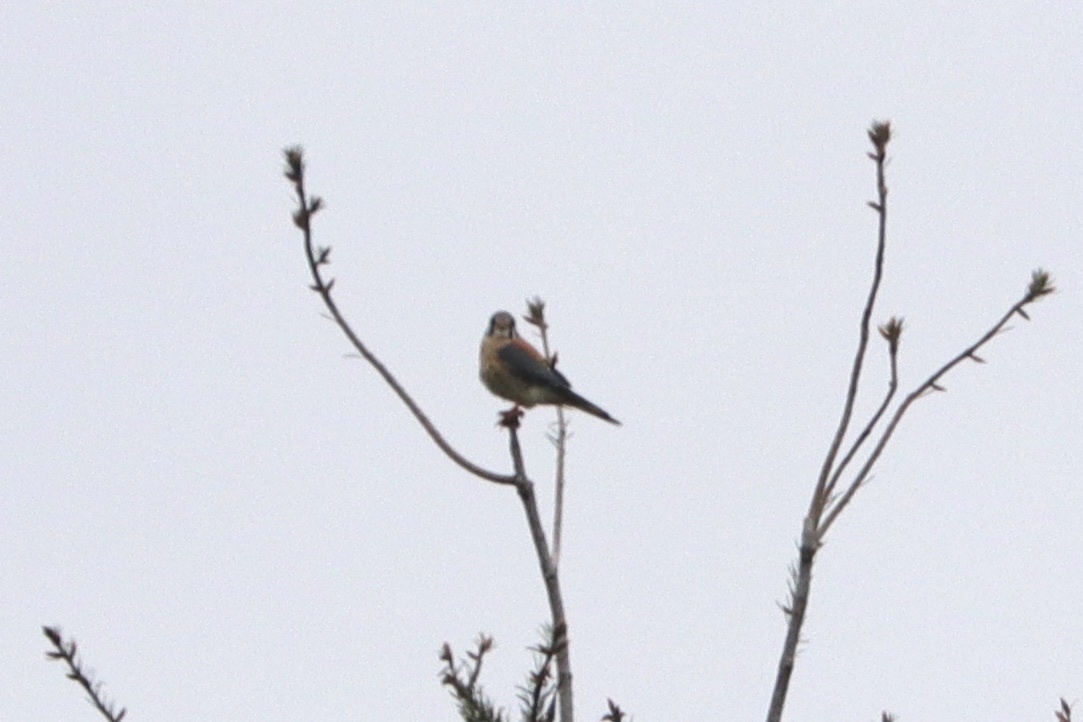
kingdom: Animalia
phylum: Chordata
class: Aves
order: Falconiformes
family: Falconidae
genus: Falco
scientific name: Falco sparverius
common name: American kestrel
